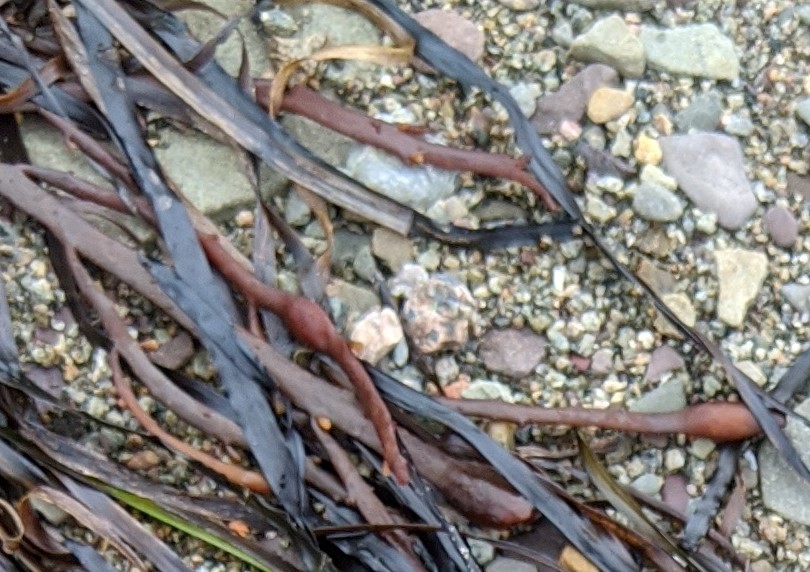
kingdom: Chromista
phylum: Ochrophyta
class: Phaeophyceae
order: Fucales
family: Fucaceae
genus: Ascophyllum
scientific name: Ascophyllum nodosum
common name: Knotted wrack
